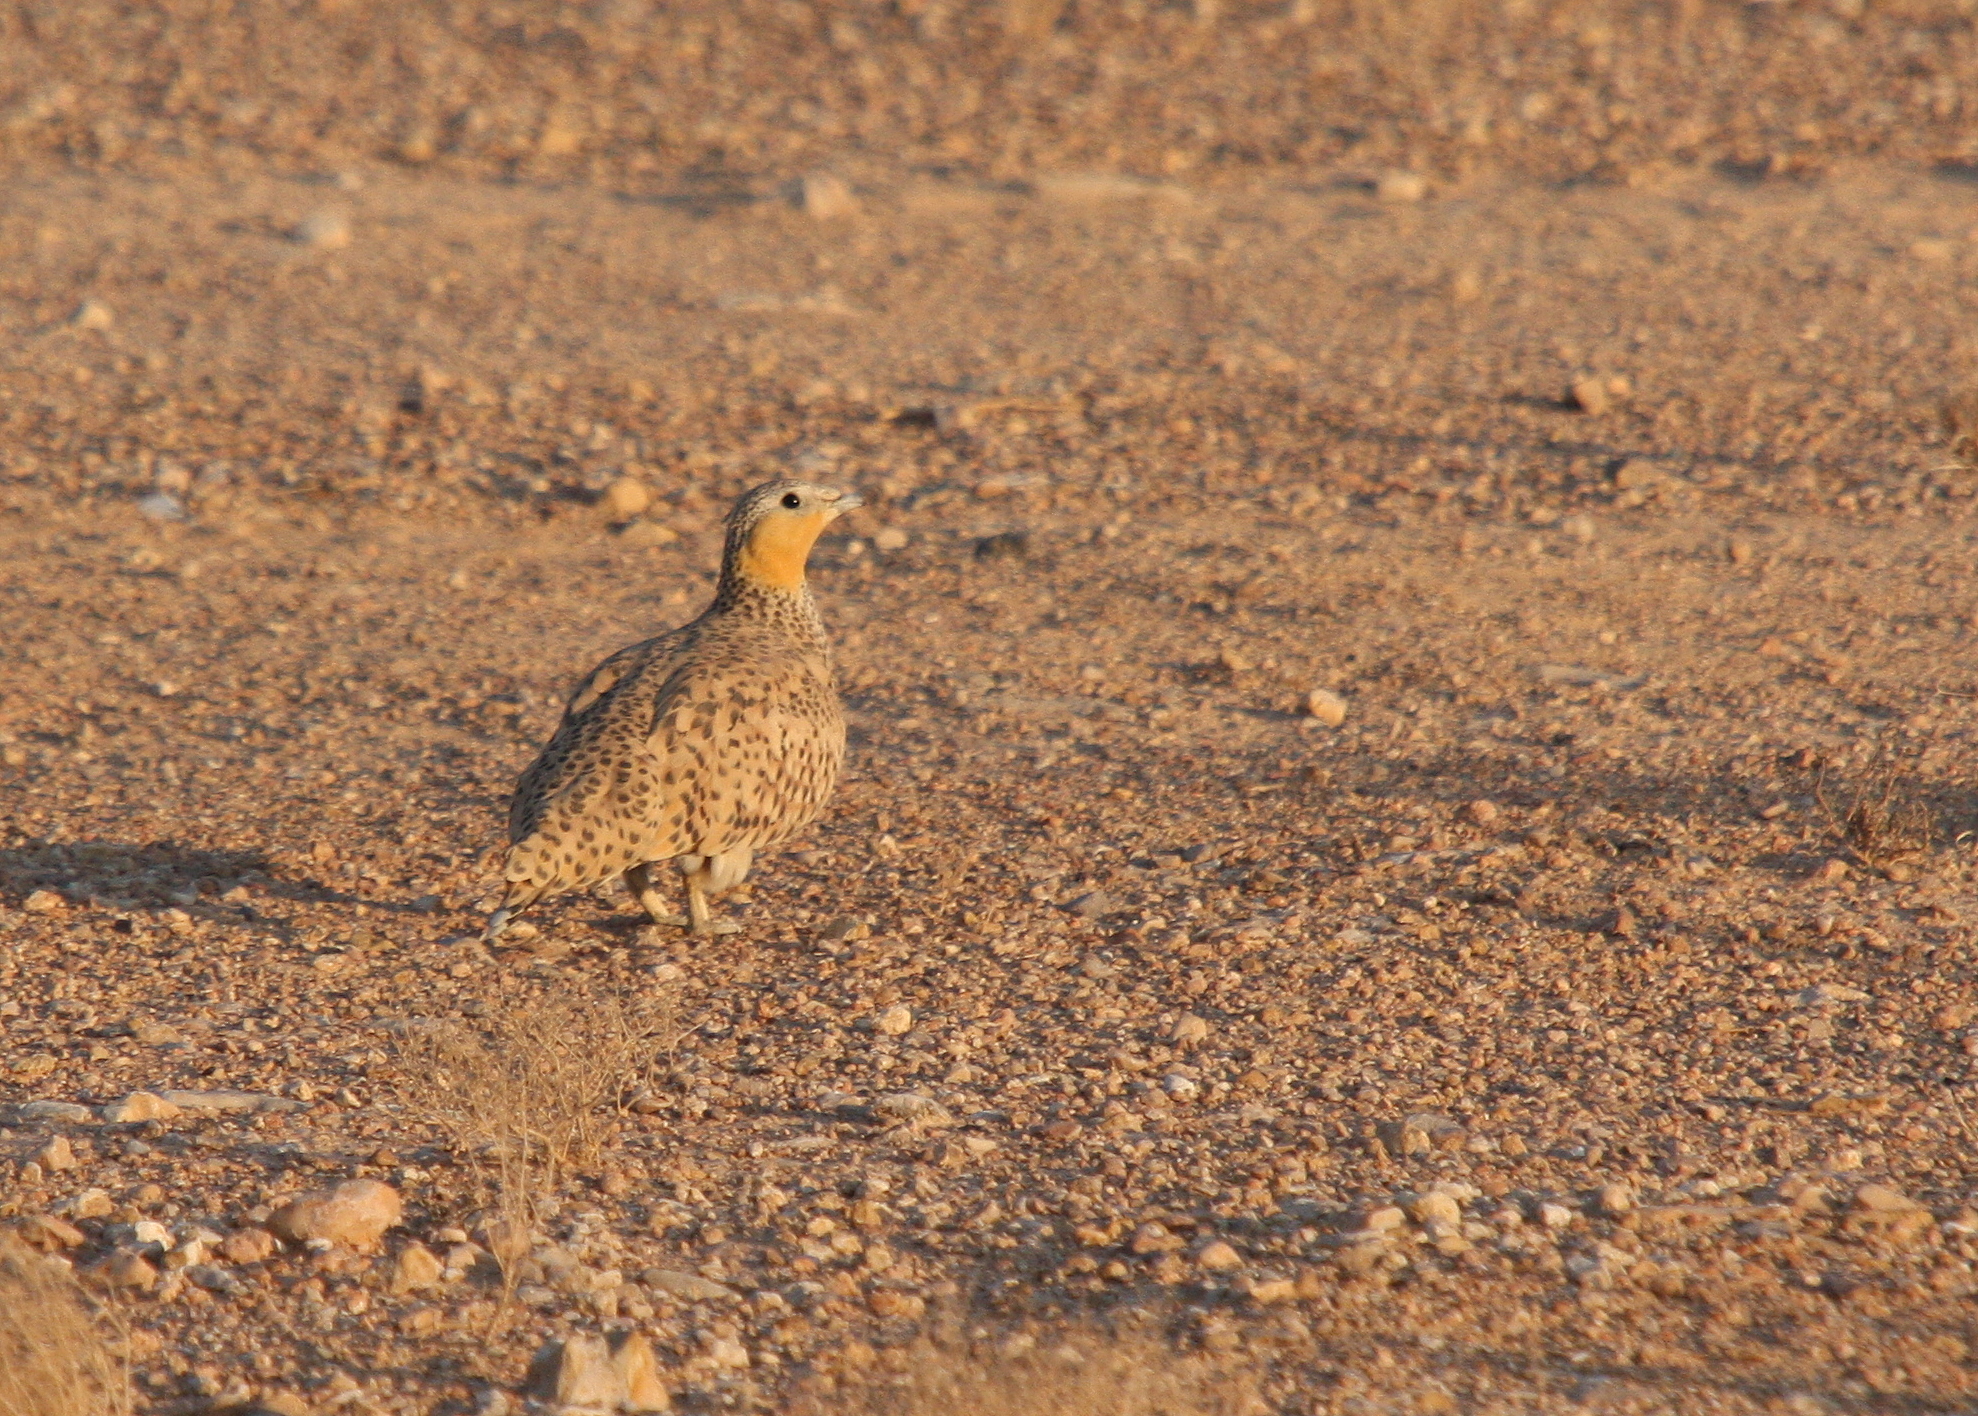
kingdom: Animalia
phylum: Chordata
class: Aves
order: Pteroclidiformes
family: Pteroclididae
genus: Pterocles
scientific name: Pterocles senegallus
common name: Spotted sandgrouse
